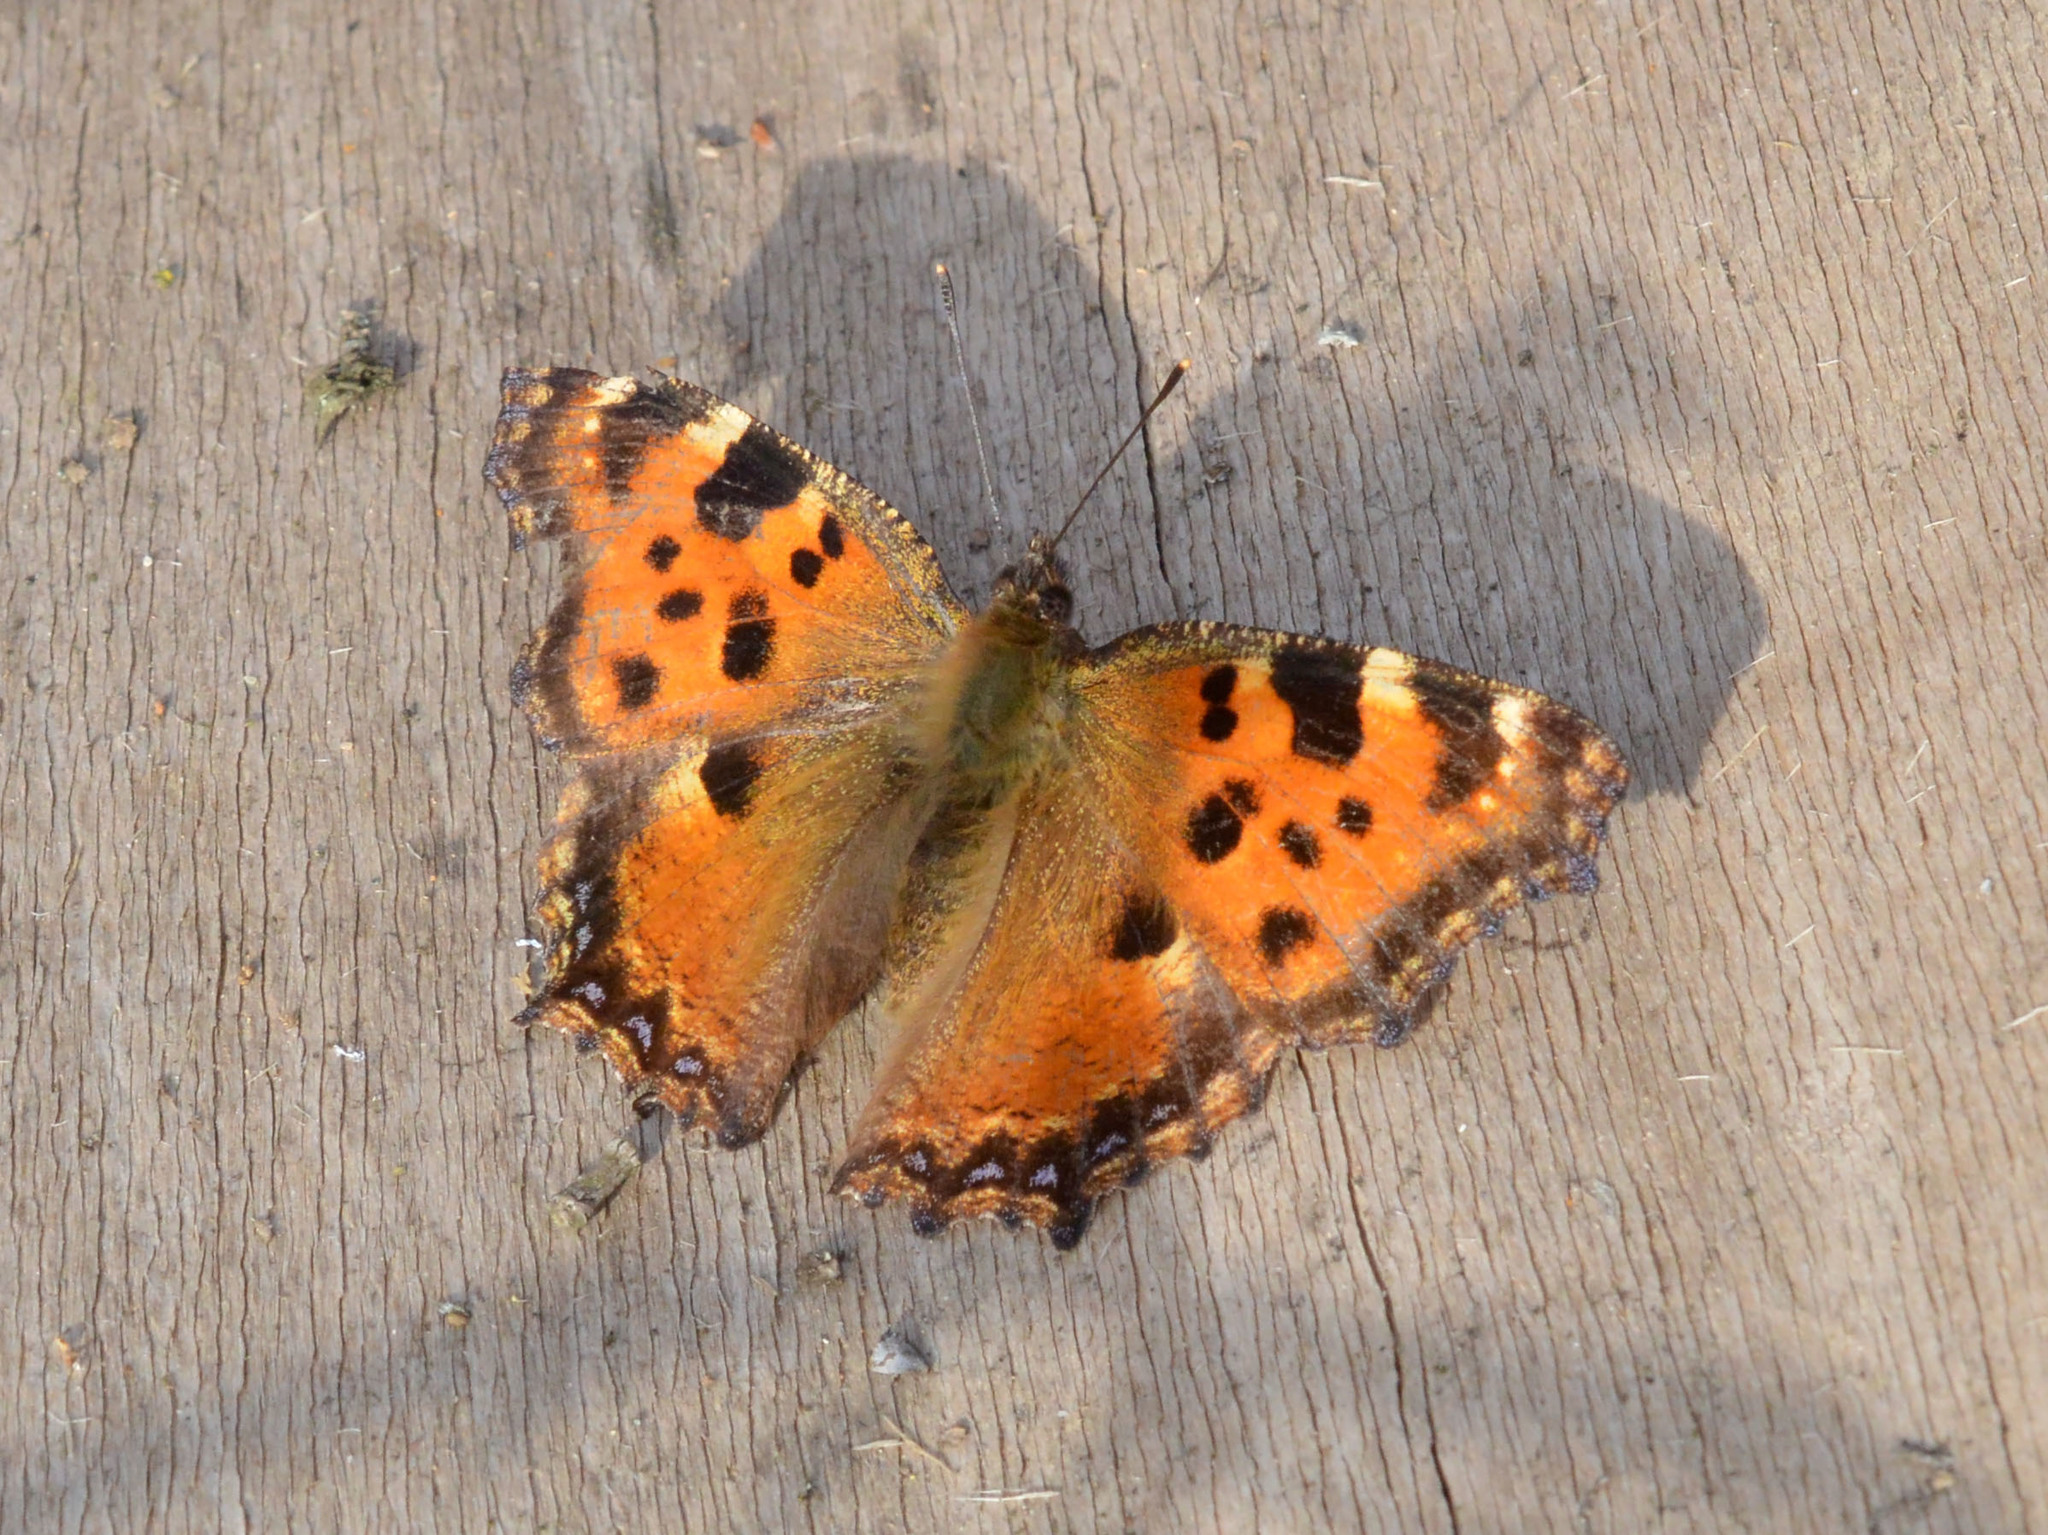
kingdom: Animalia
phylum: Arthropoda
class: Insecta
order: Lepidoptera
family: Nymphalidae
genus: Nymphalis
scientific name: Nymphalis polychloros
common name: Large tortoiseshell
